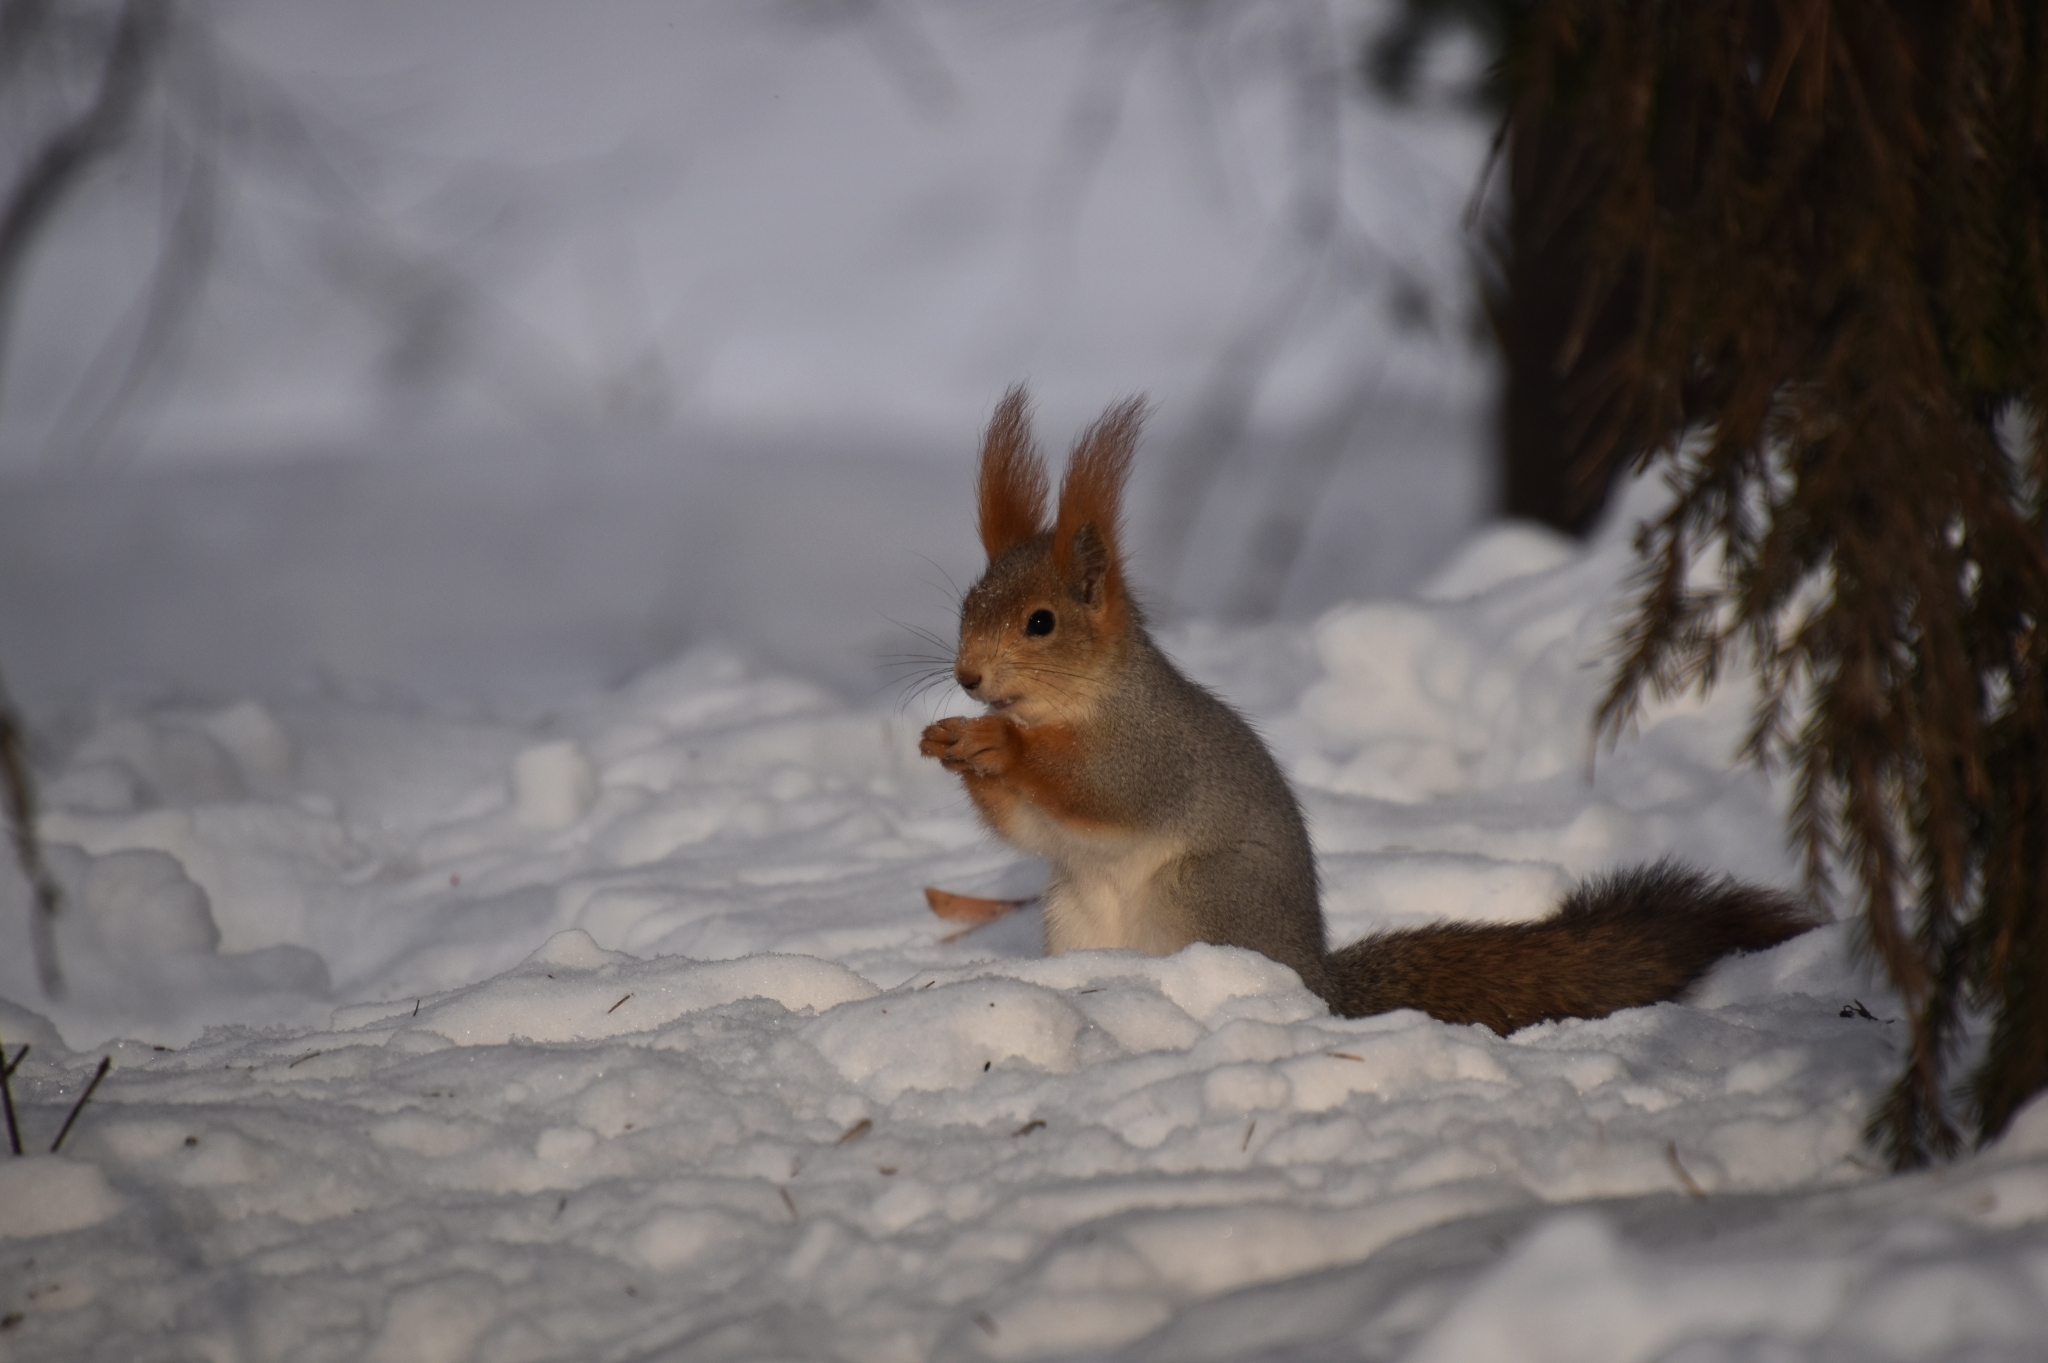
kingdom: Animalia
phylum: Chordata
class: Mammalia
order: Rodentia
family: Sciuridae
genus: Sciurus
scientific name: Sciurus vulgaris
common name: Eurasian red squirrel
